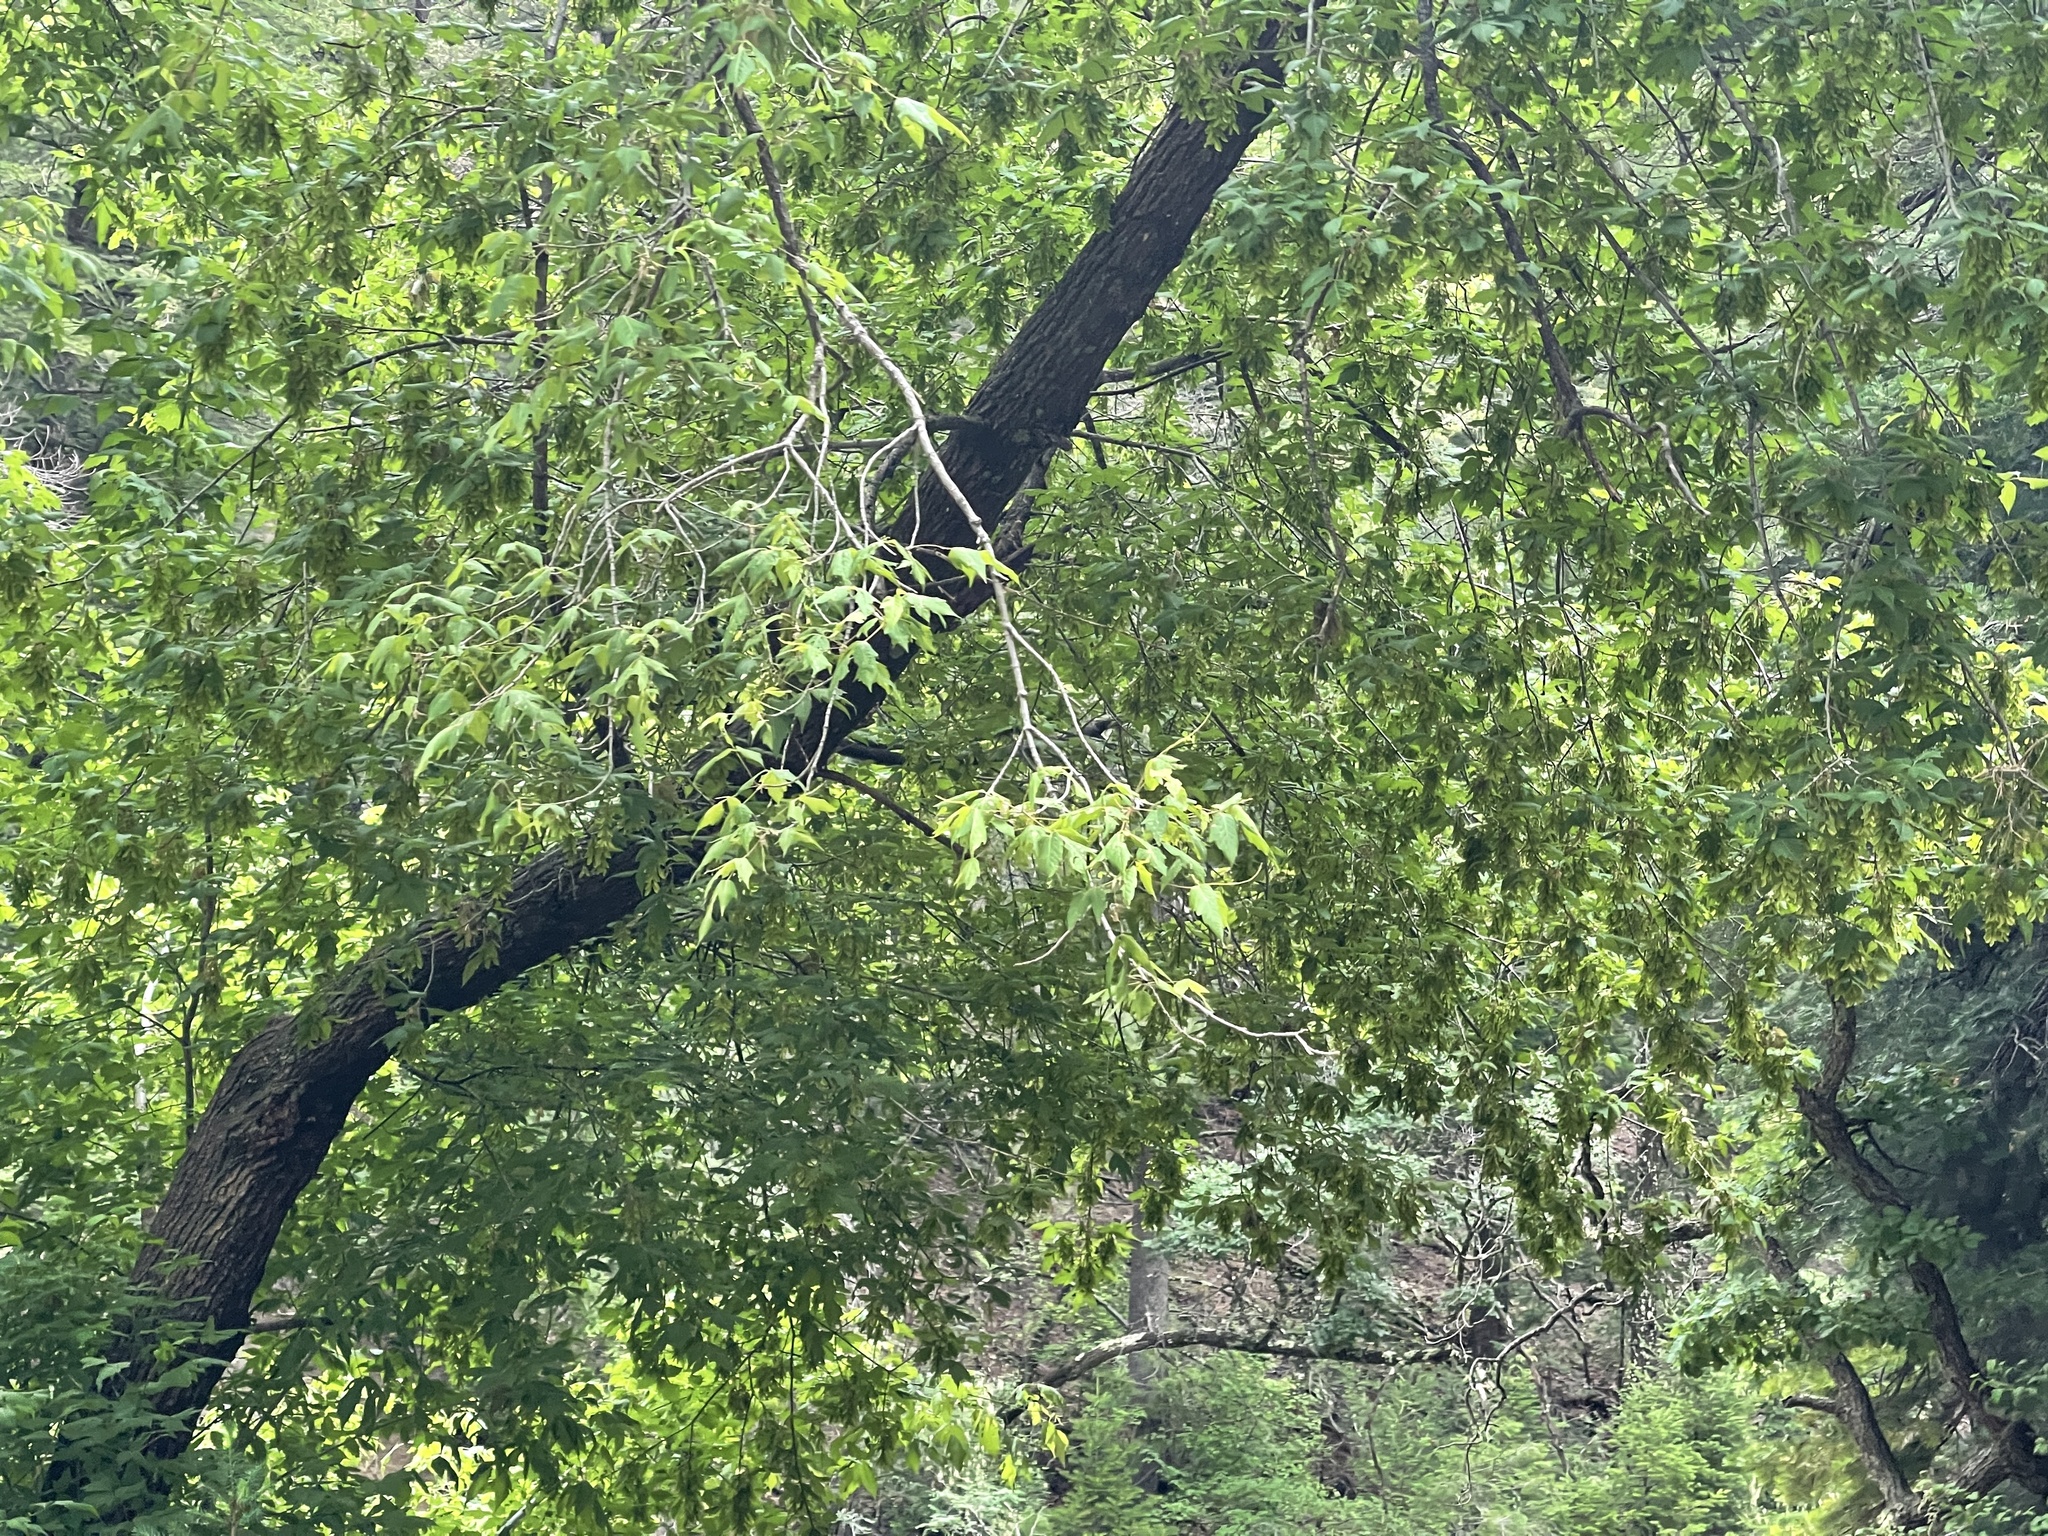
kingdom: Plantae
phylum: Tracheophyta
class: Magnoliopsida
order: Sapindales
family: Sapindaceae
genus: Acer
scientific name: Acer negundo
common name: Ashleaf maple
